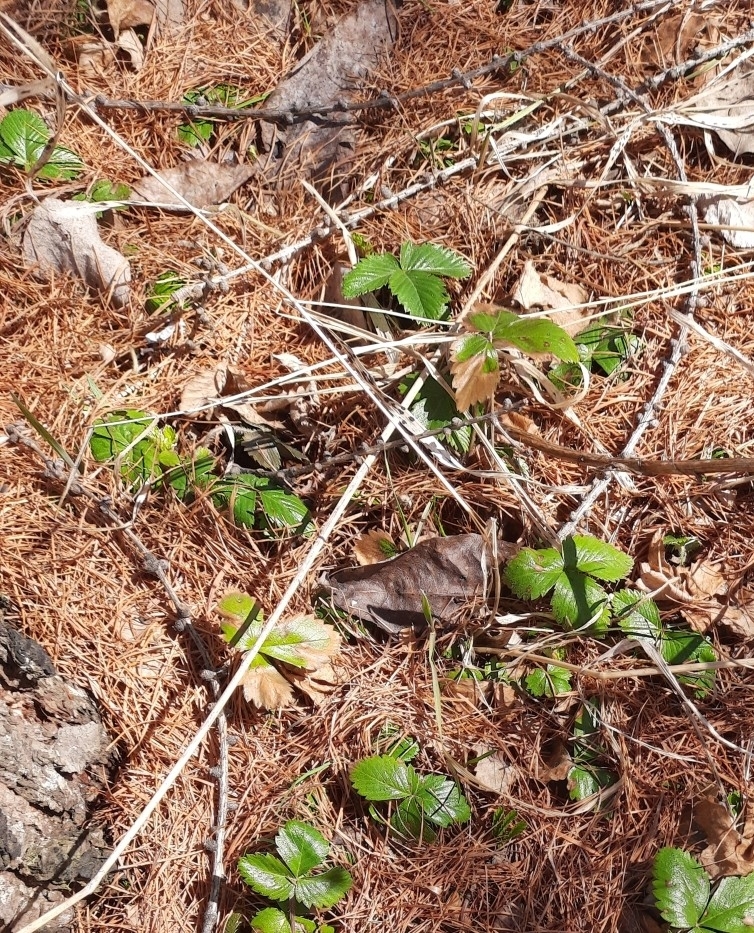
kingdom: Plantae
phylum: Tracheophyta
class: Magnoliopsida
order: Rosales
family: Rosaceae
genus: Fragaria
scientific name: Fragaria vesca
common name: Wild strawberry
